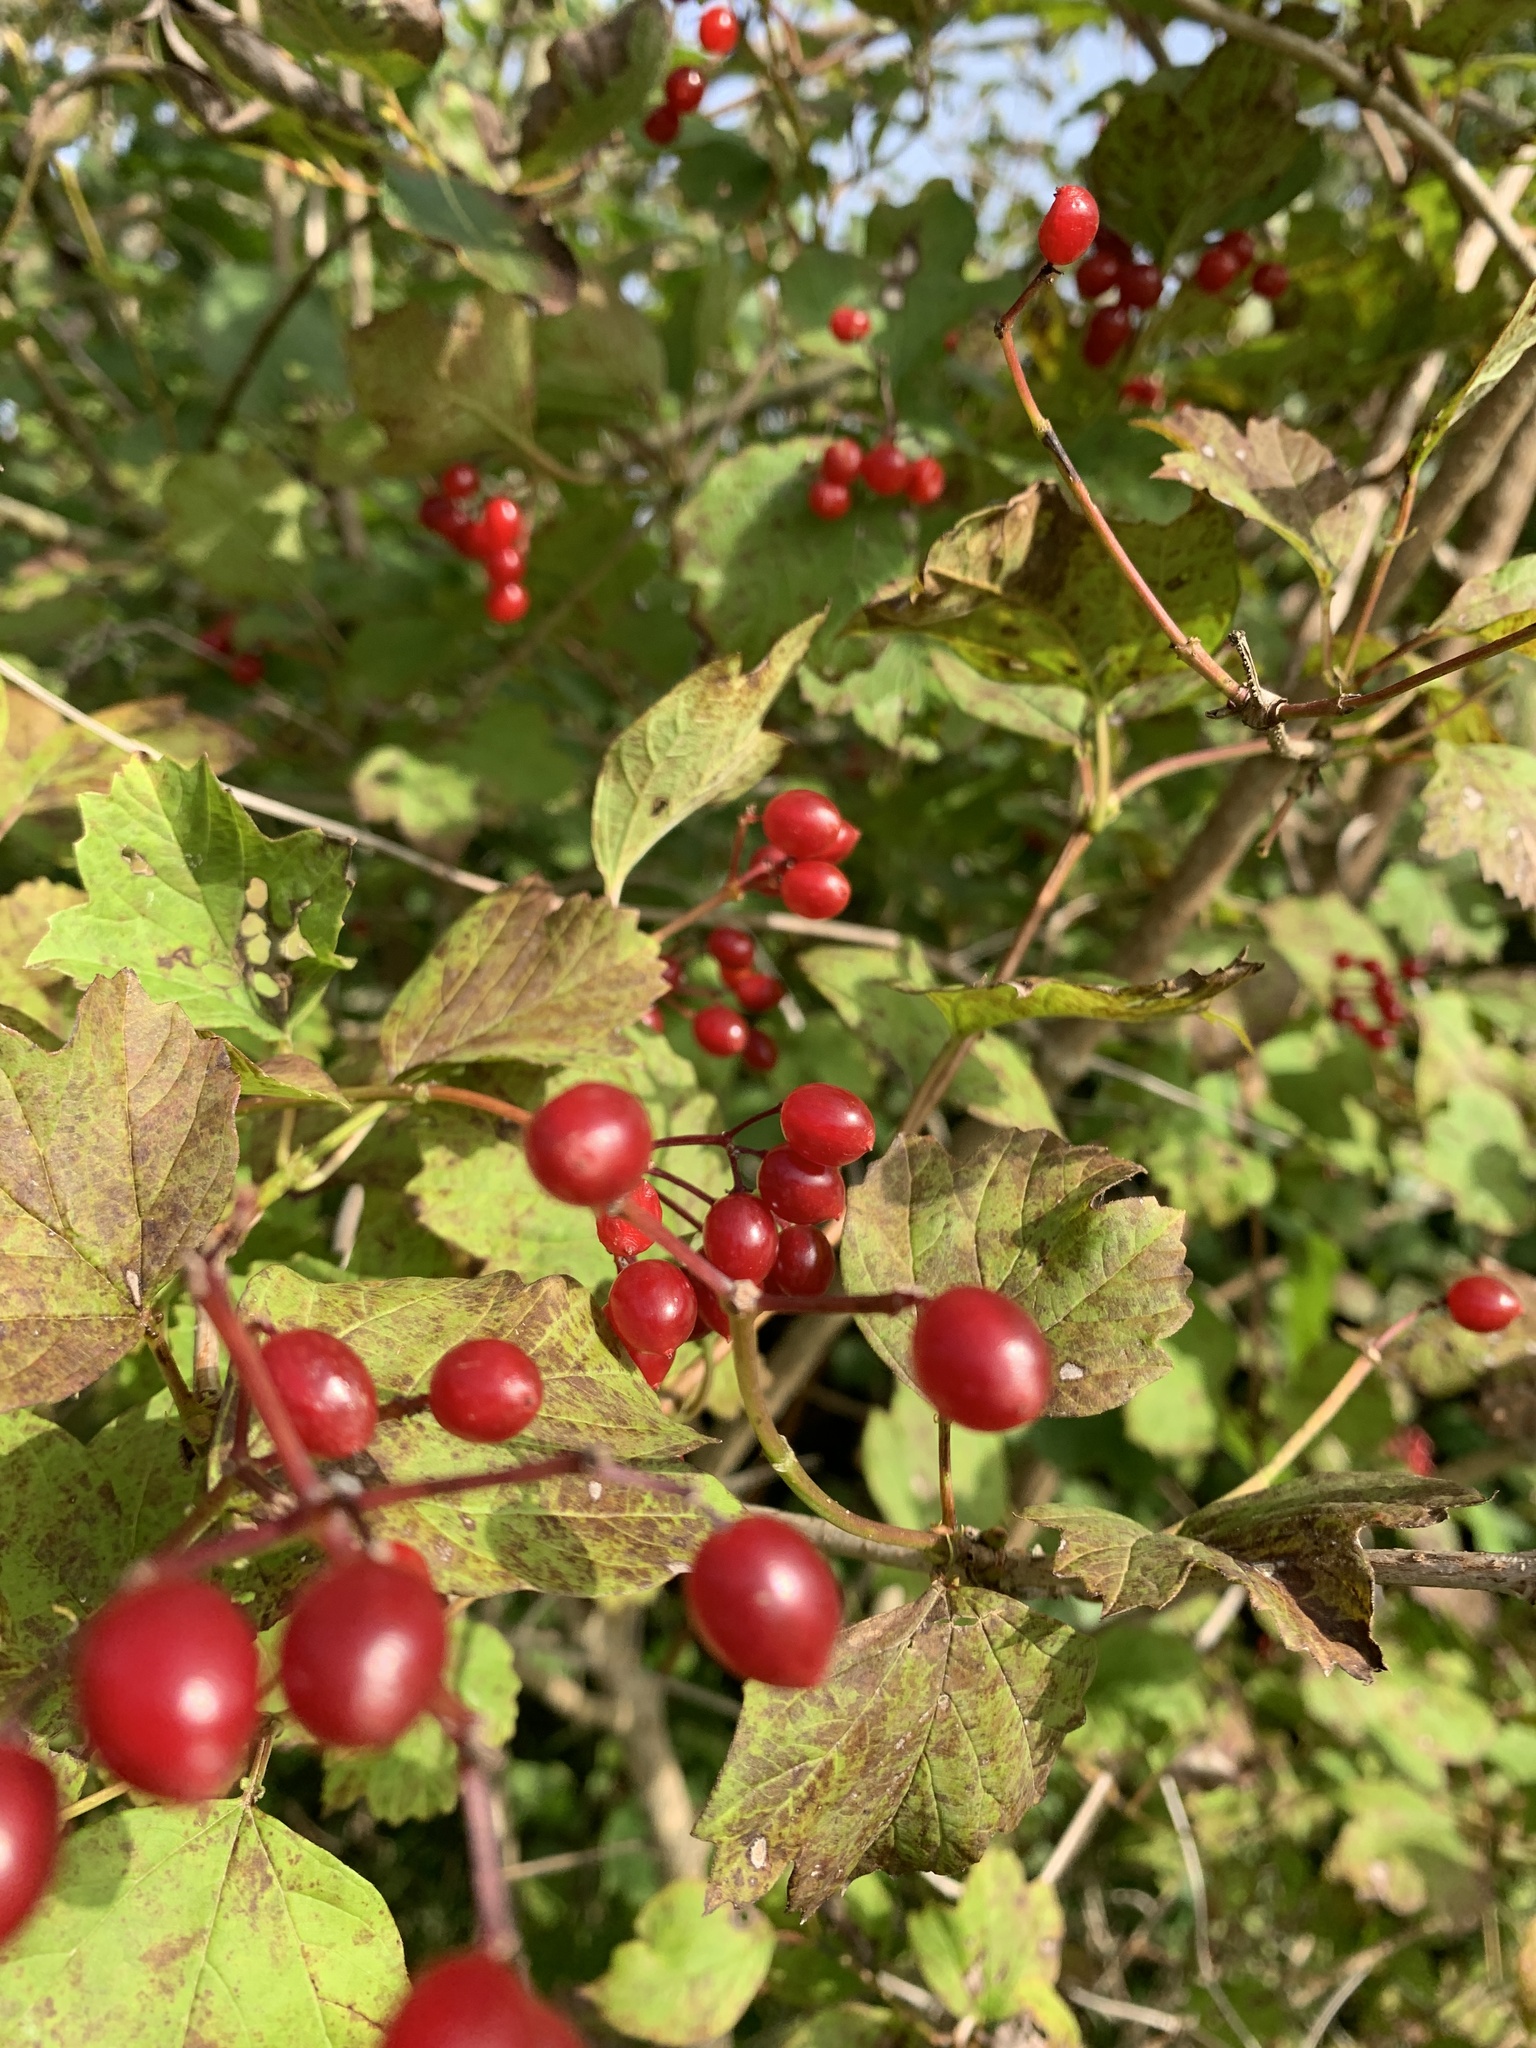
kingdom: Plantae
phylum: Tracheophyta
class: Magnoliopsida
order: Dipsacales
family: Viburnaceae
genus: Viburnum
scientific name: Viburnum opulus
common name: Guelder-rose
